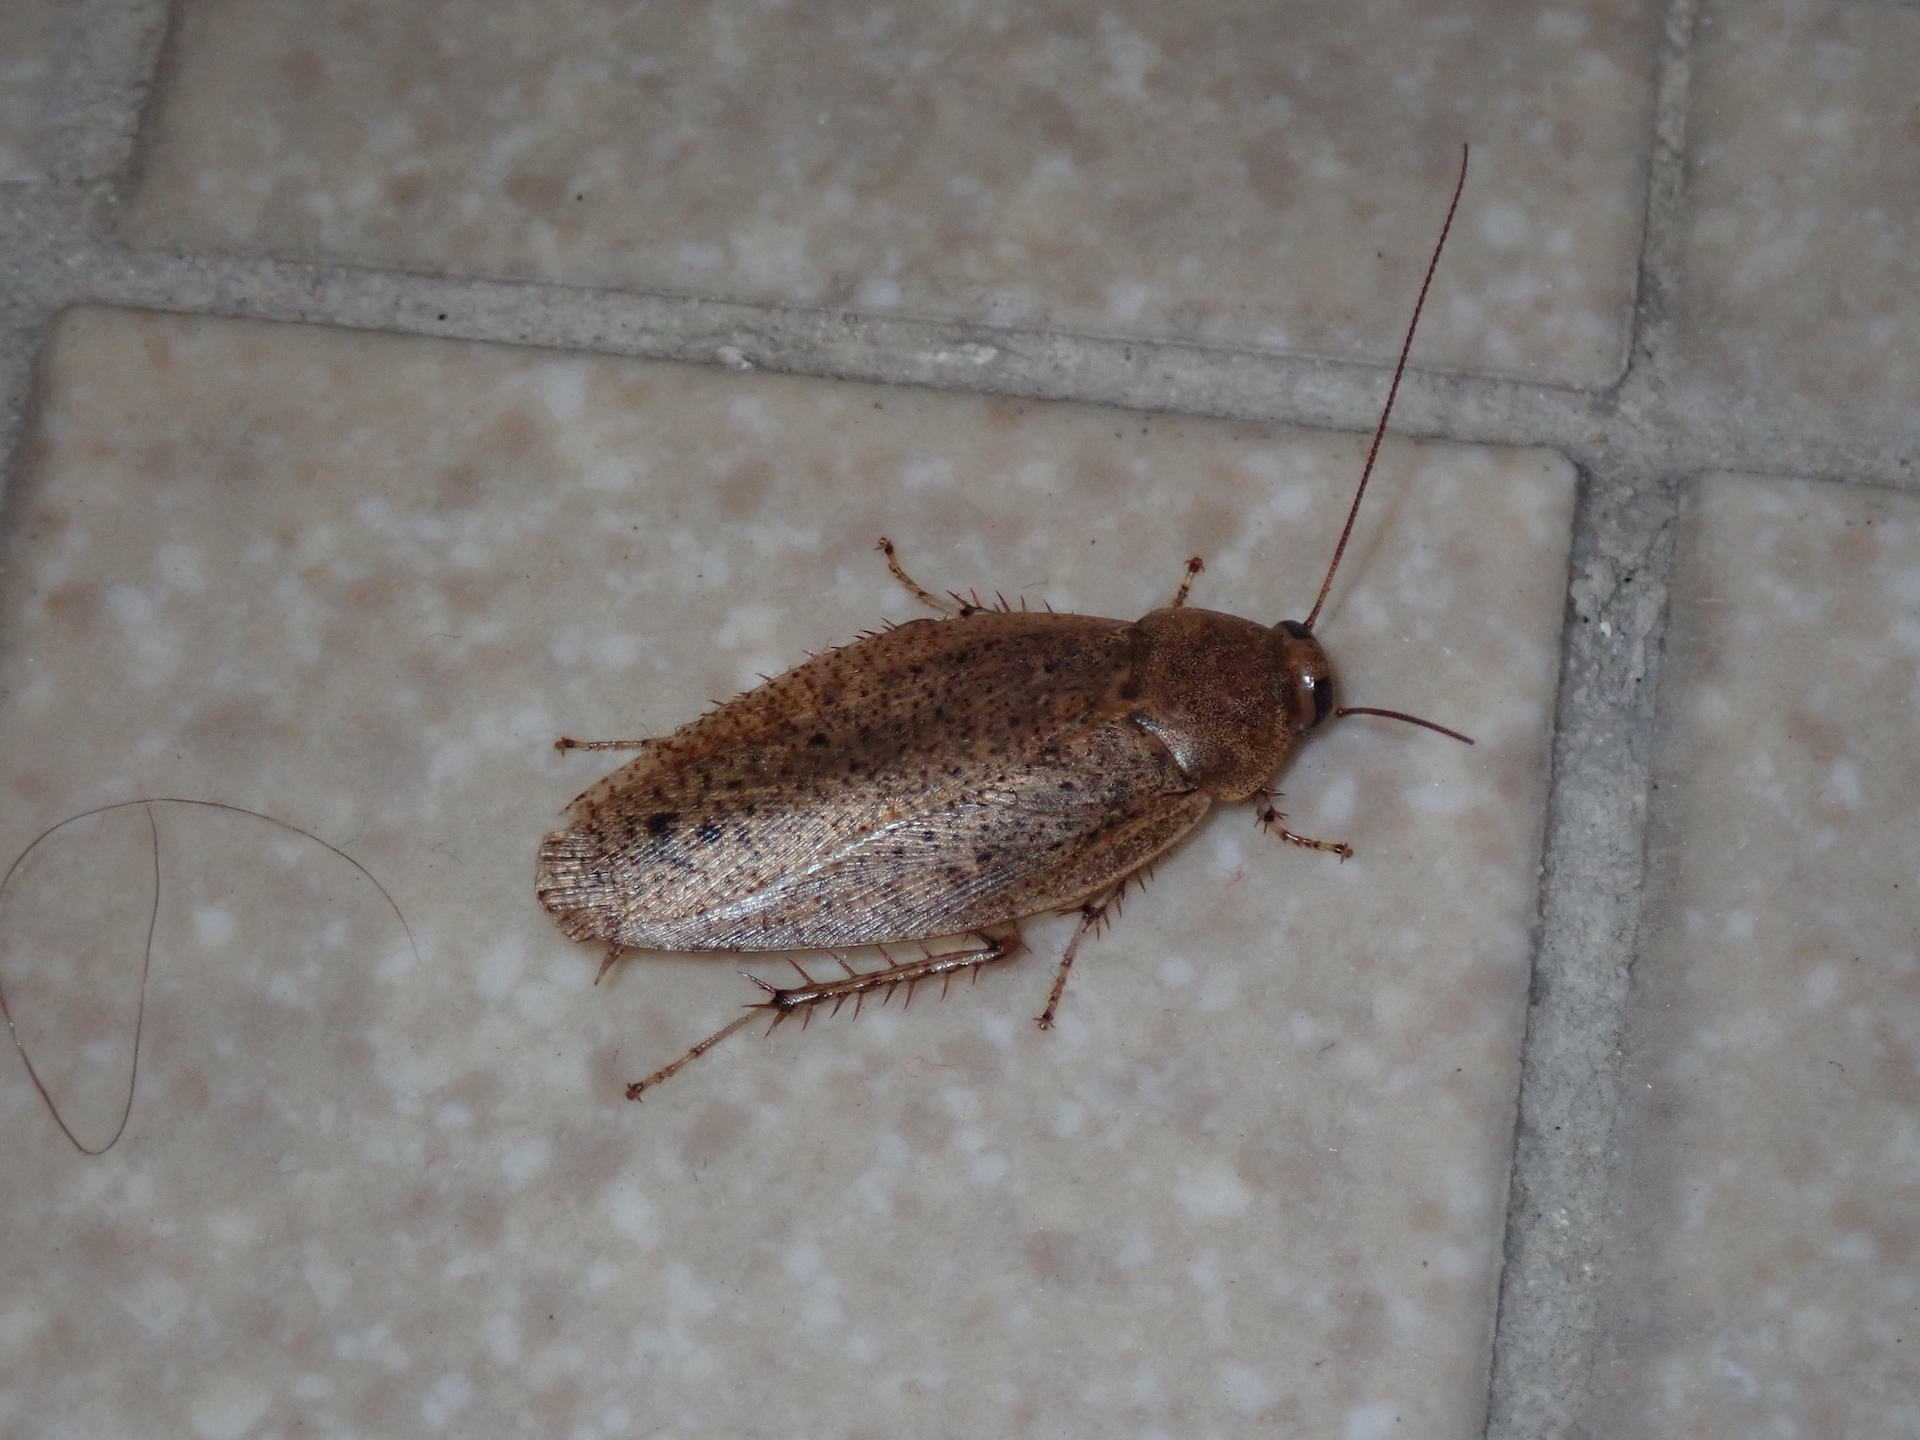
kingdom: Animalia
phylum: Arthropoda
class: Insecta
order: Blattodea
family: Blaberidae
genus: Epilampra
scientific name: Epilampra maya
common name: Maya cockroach
